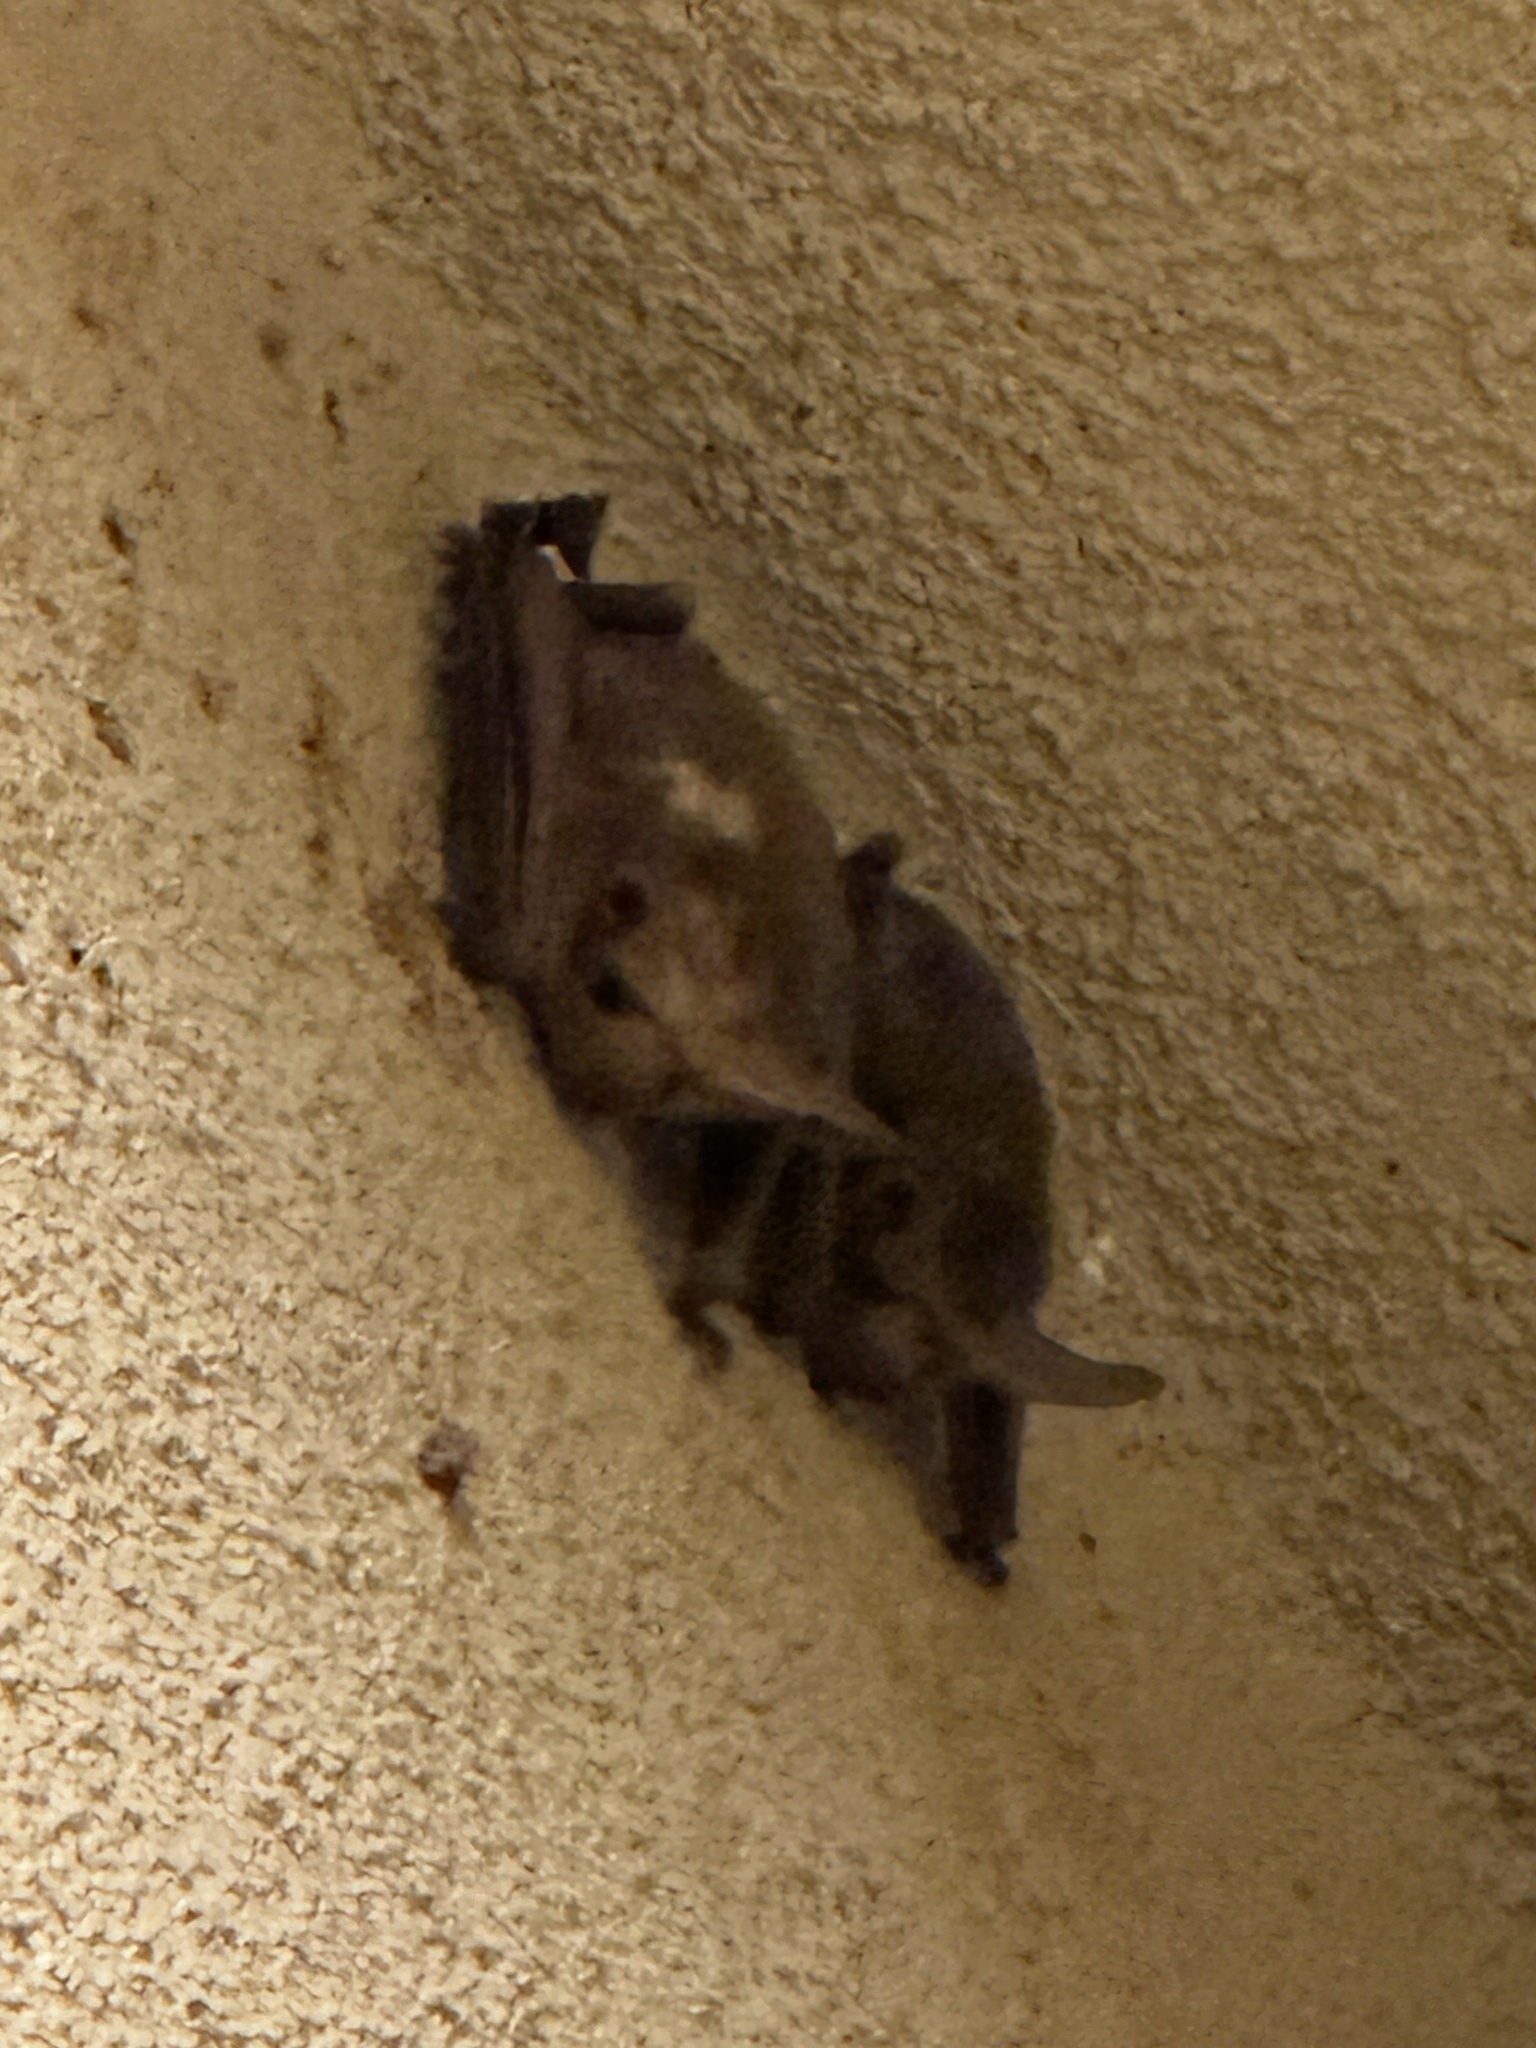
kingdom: Animalia
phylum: Chordata
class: Mammalia
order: Chiroptera
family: Vespertilionidae
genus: Antrozous
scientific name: Antrozous pallidus
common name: Pallid bat
